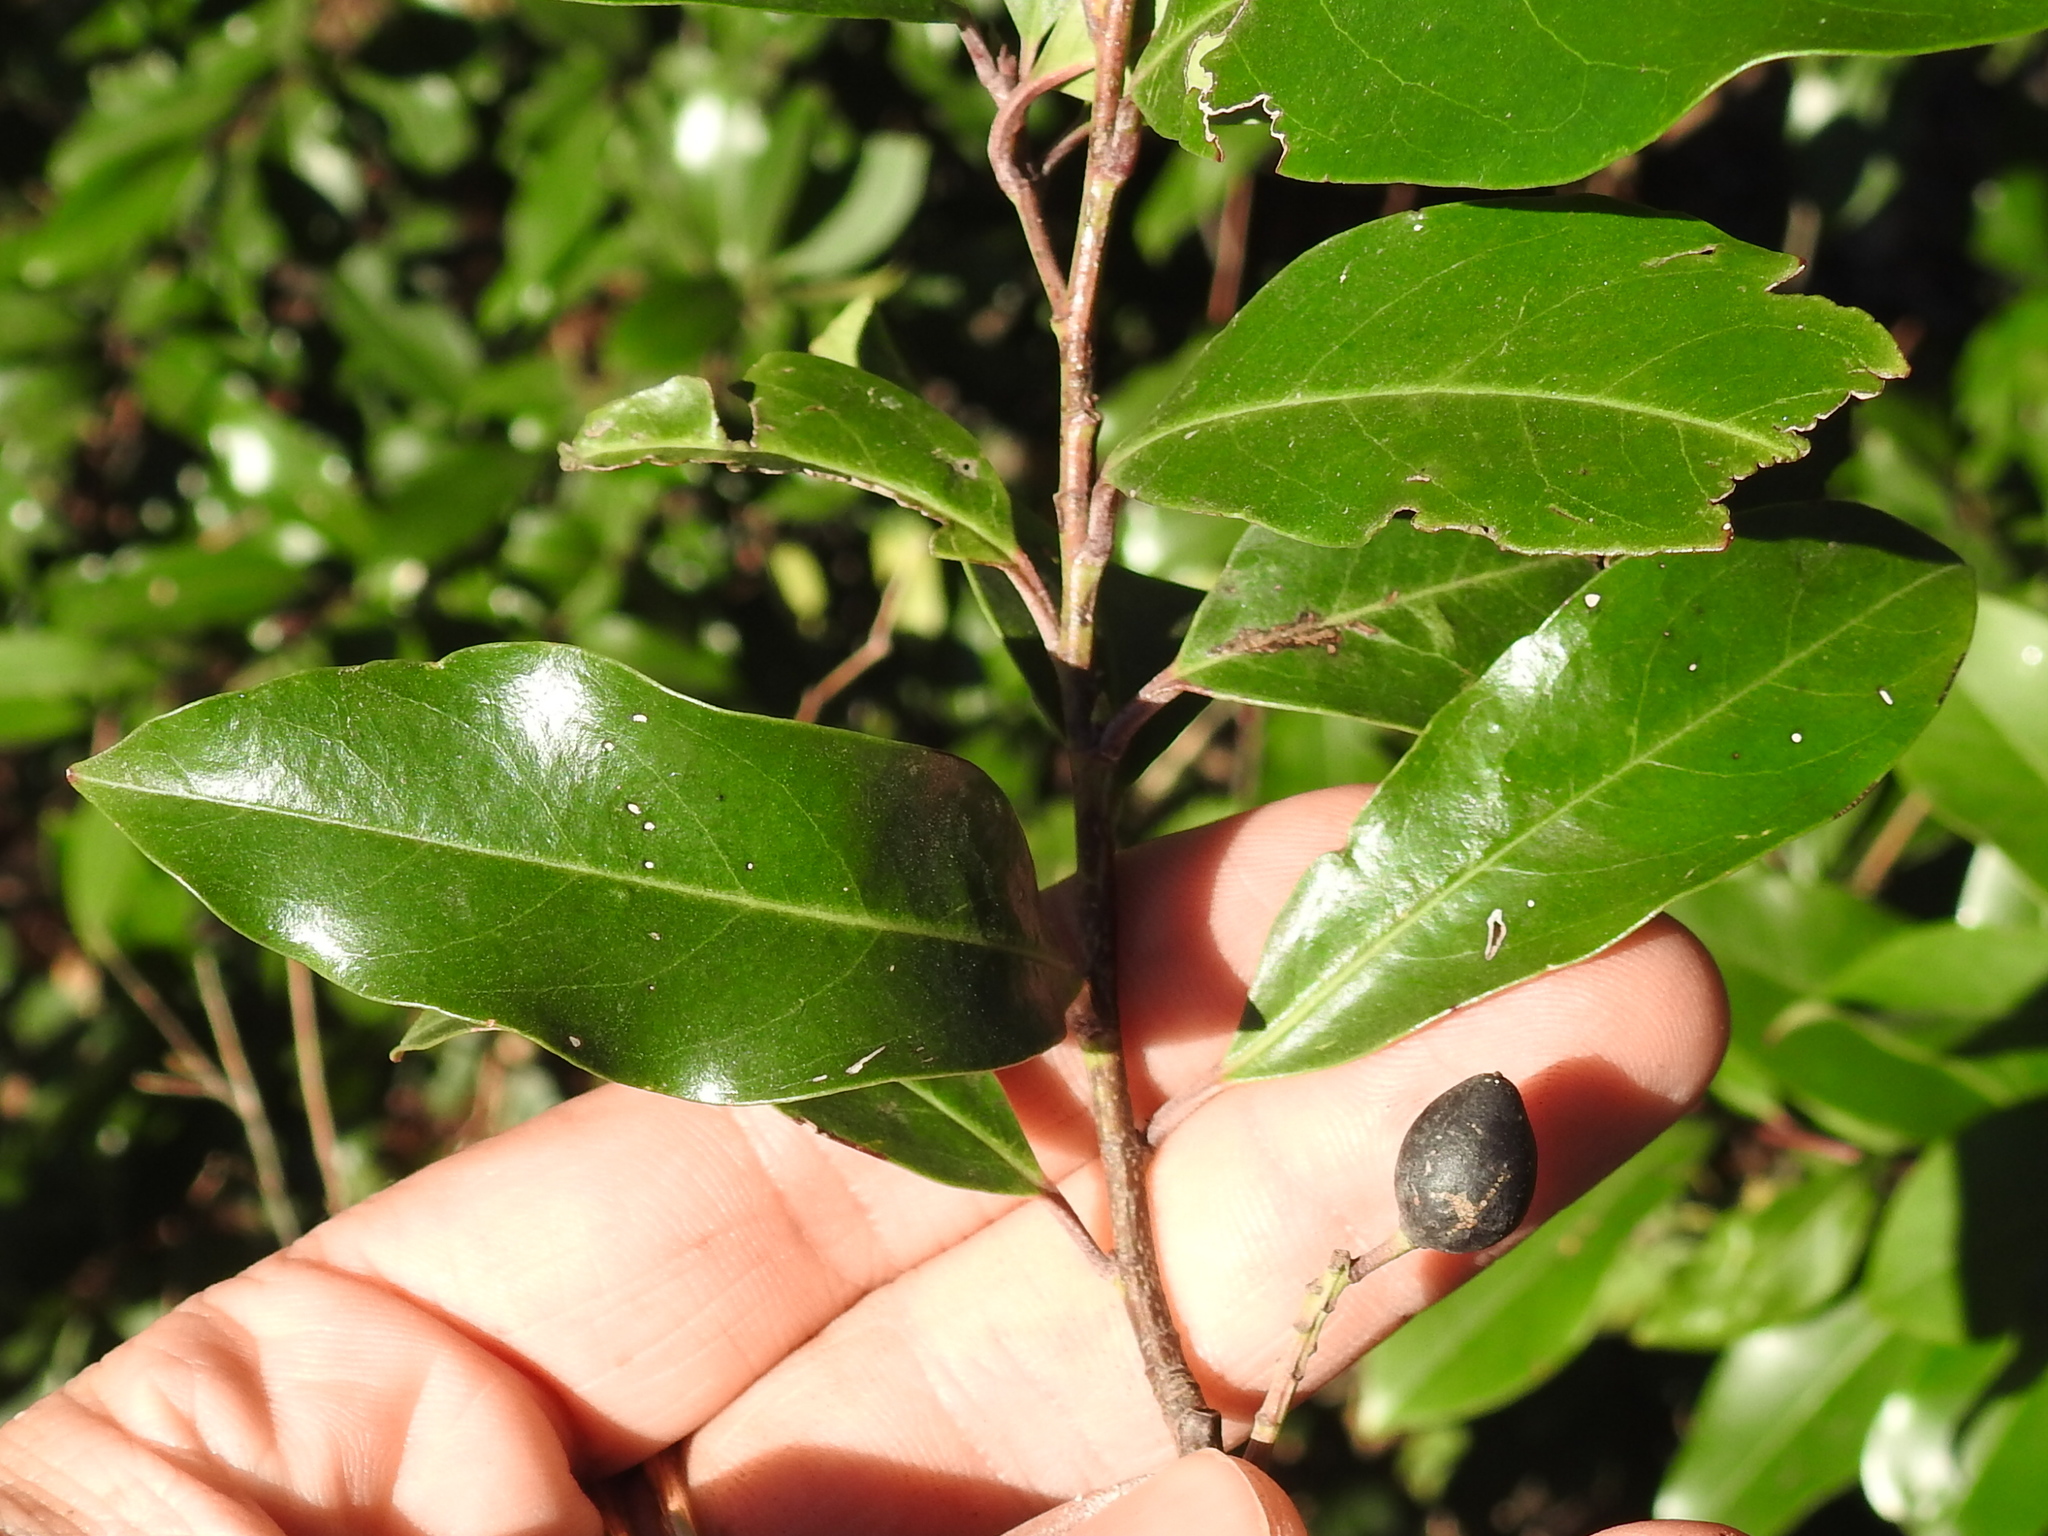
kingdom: Plantae
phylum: Tracheophyta
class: Magnoliopsida
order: Rosales
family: Rosaceae
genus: Prunus
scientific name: Prunus caroliniana
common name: Carolina laurel cherry
